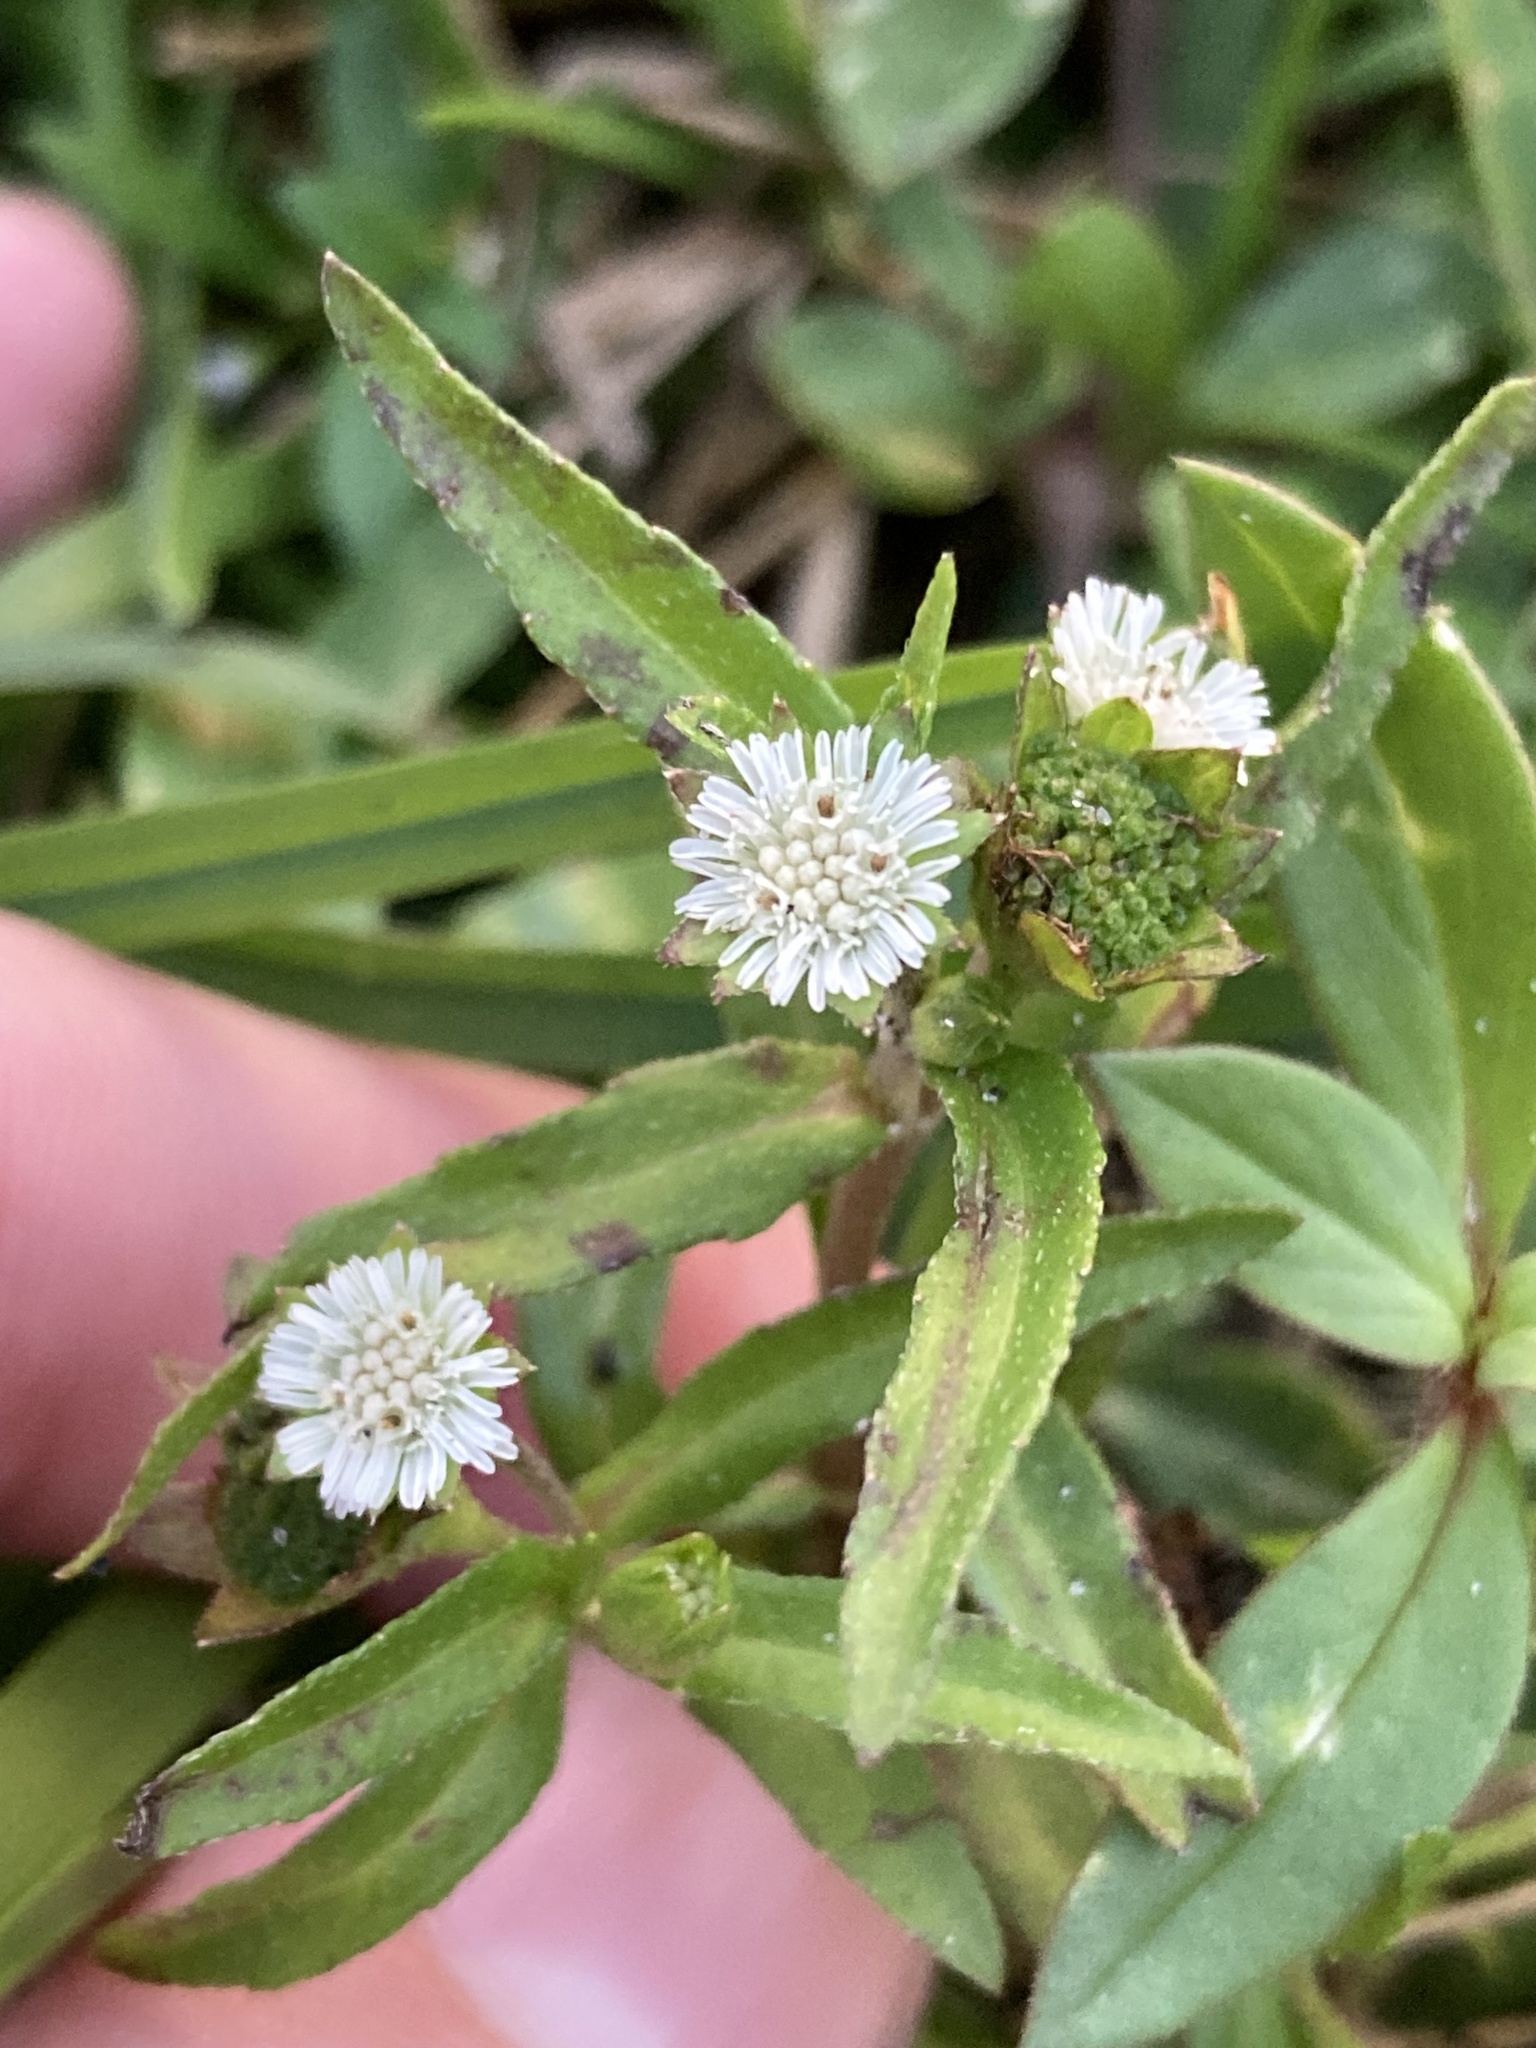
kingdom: Plantae
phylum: Tracheophyta
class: Magnoliopsida
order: Asterales
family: Asteraceae
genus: Eclipta
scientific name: Eclipta prostrata
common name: False daisy
